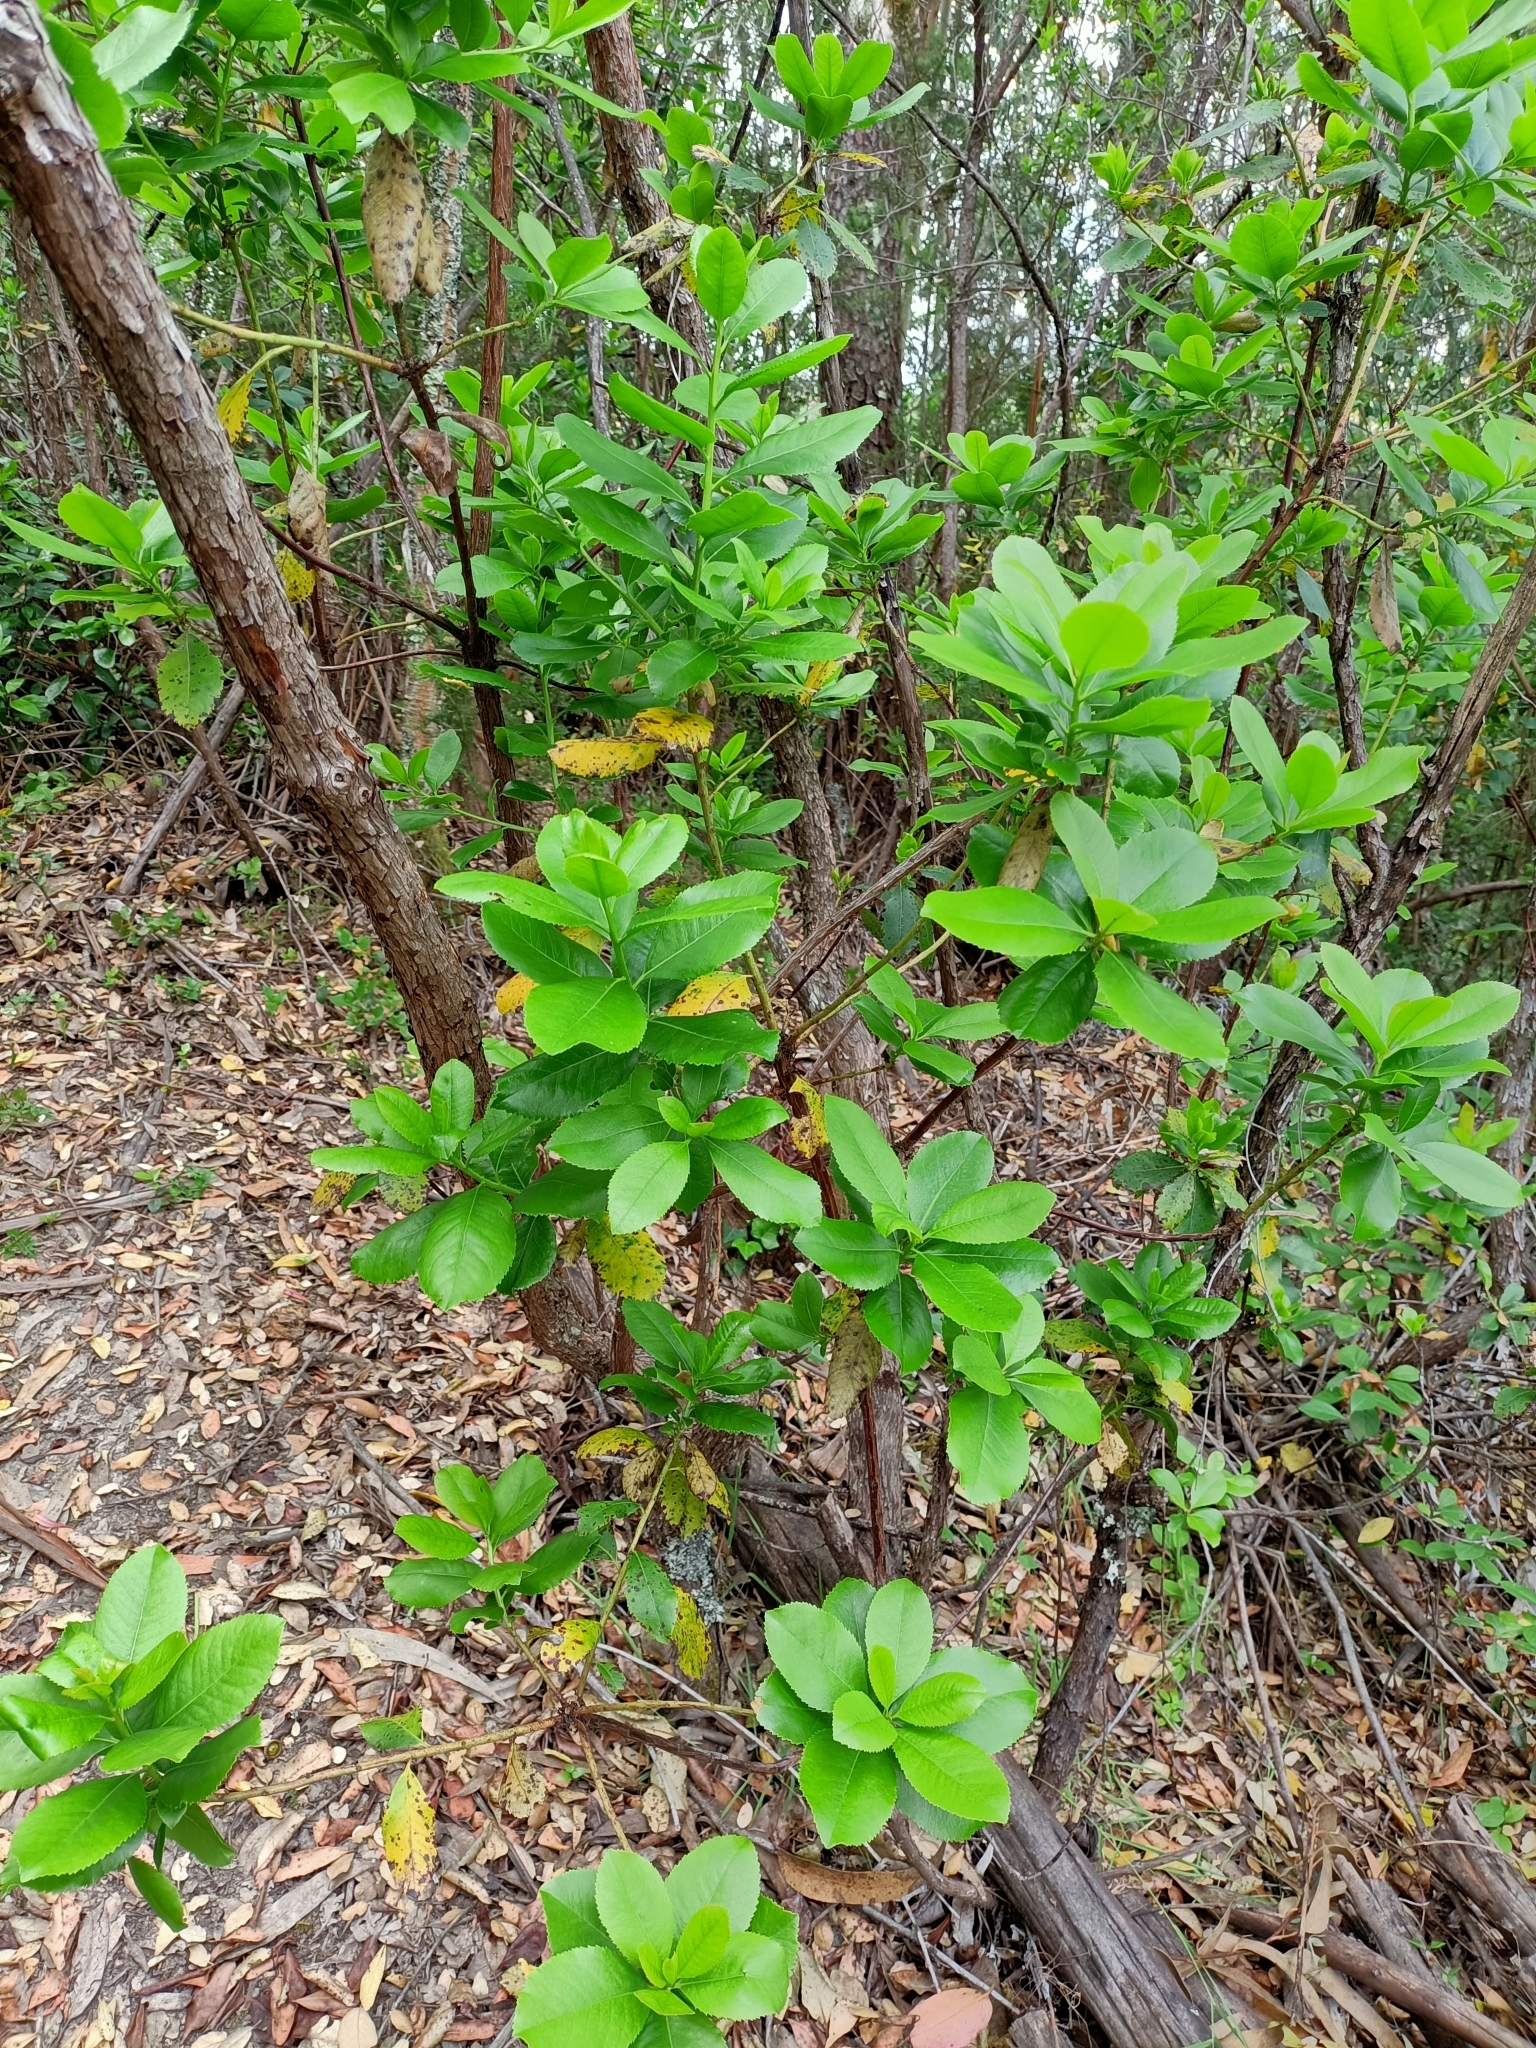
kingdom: Plantae
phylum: Tracheophyta
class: Magnoliopsida
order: Ericales
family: Ericaceae
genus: Arbutus
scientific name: Arbutus unedo
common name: Strawberry-tree
